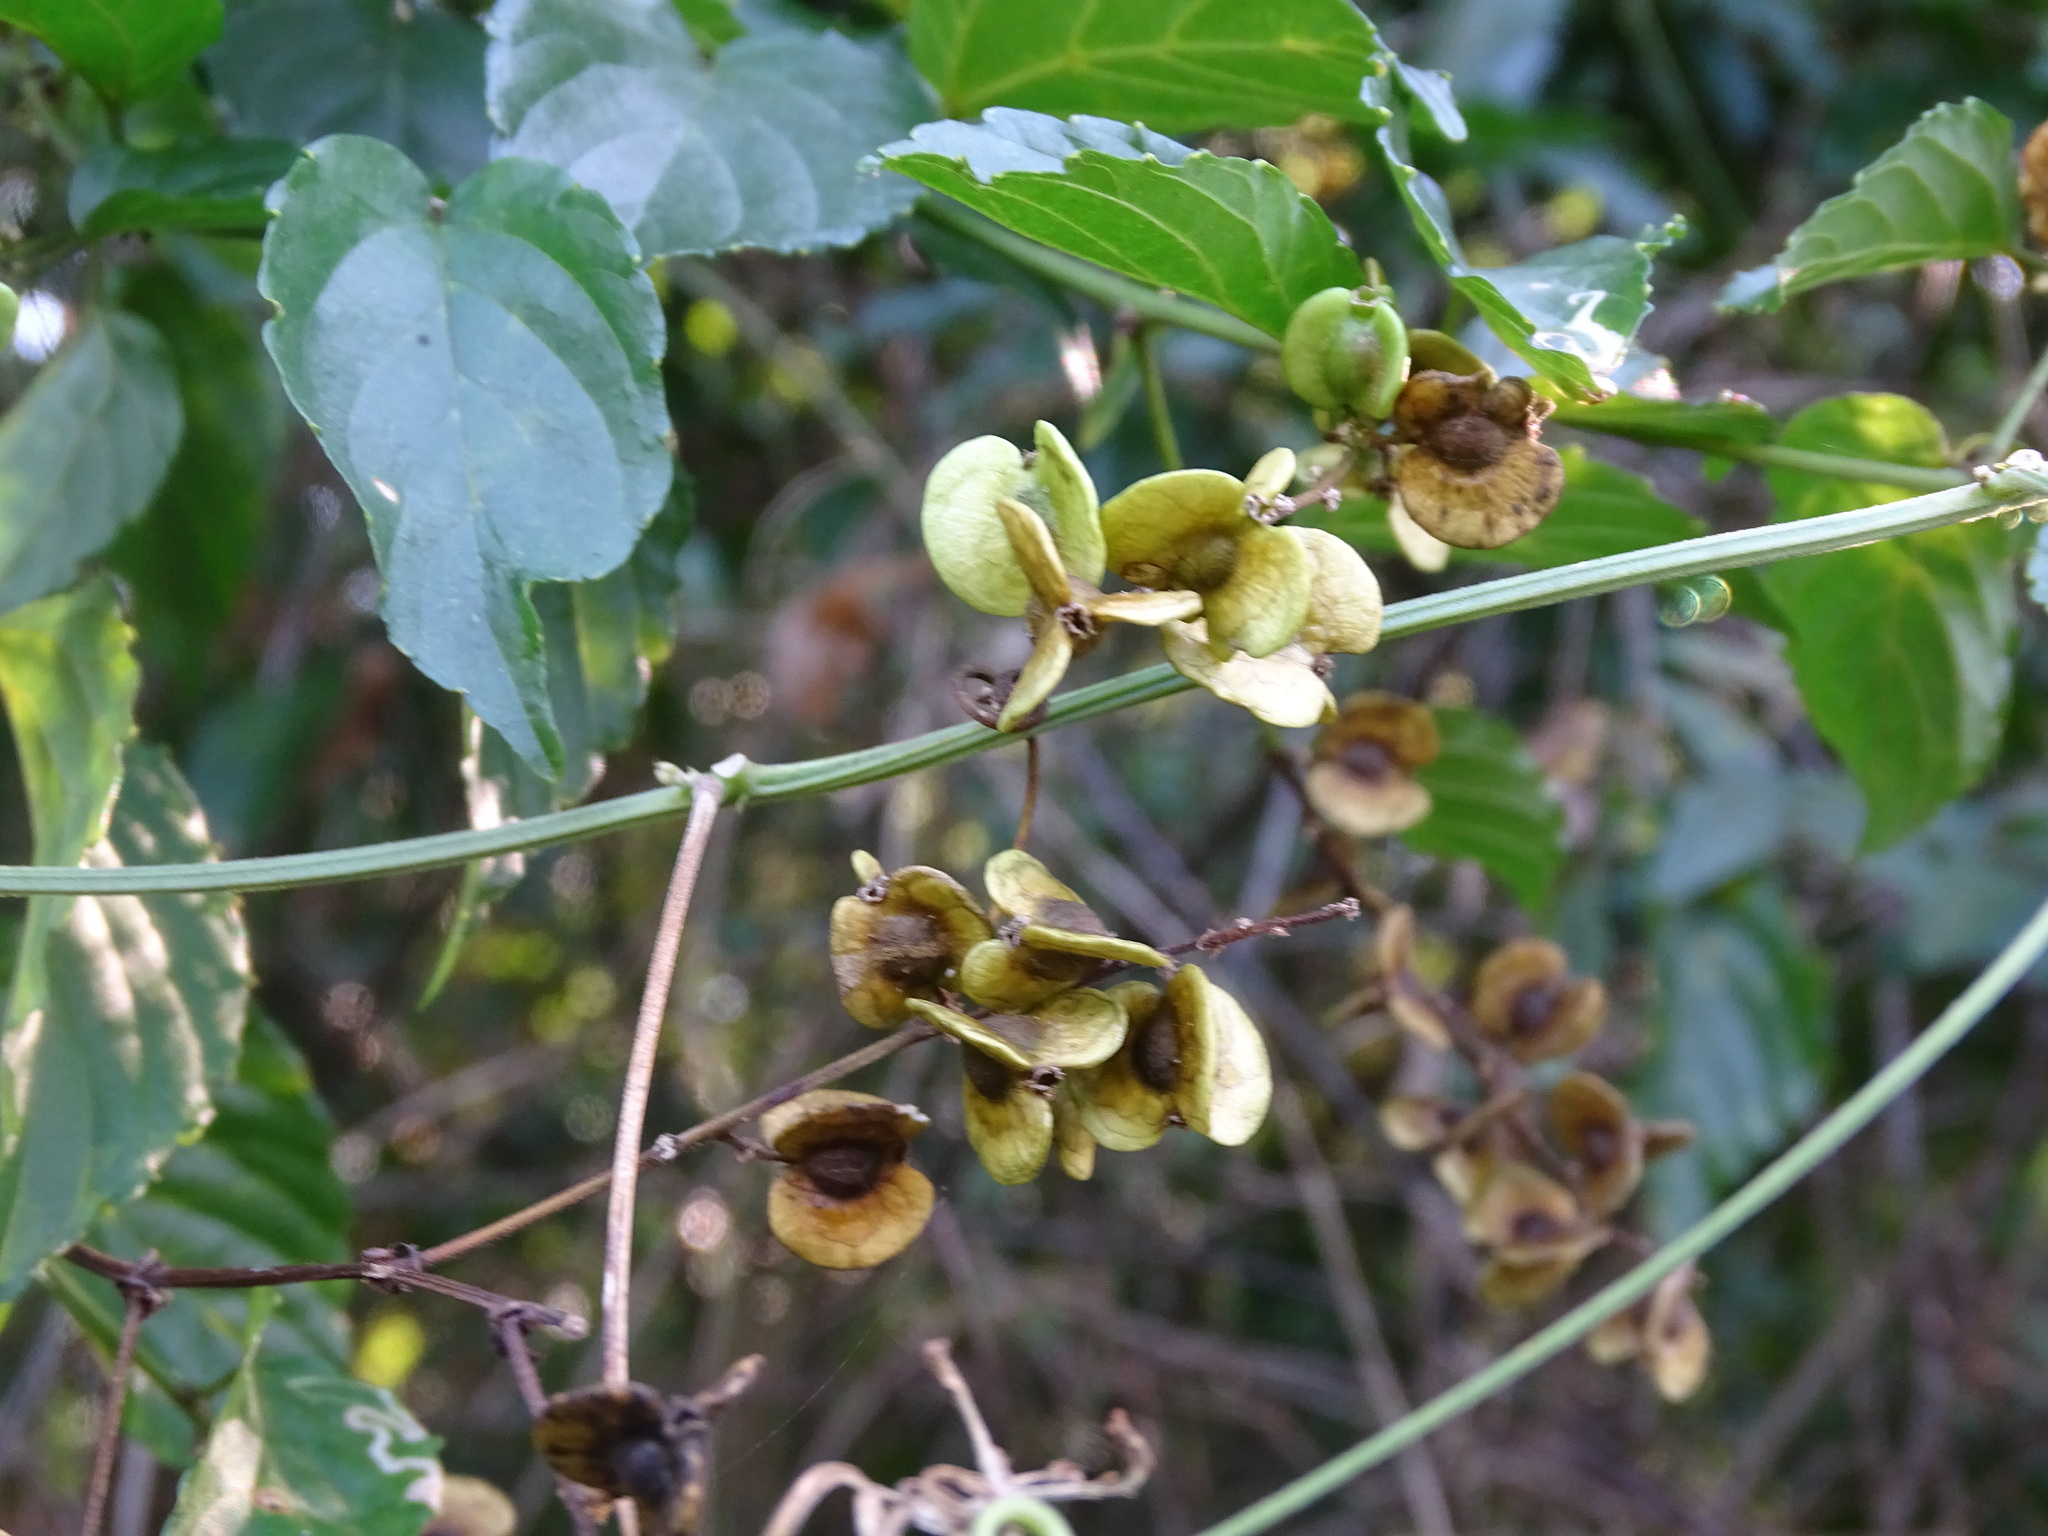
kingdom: Plantae
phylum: Tracheophyta
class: Magnoliopsida
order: Rosales
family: Rhamnaceae
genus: Gouania
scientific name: Gouania lupuloides
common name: Chewstick
